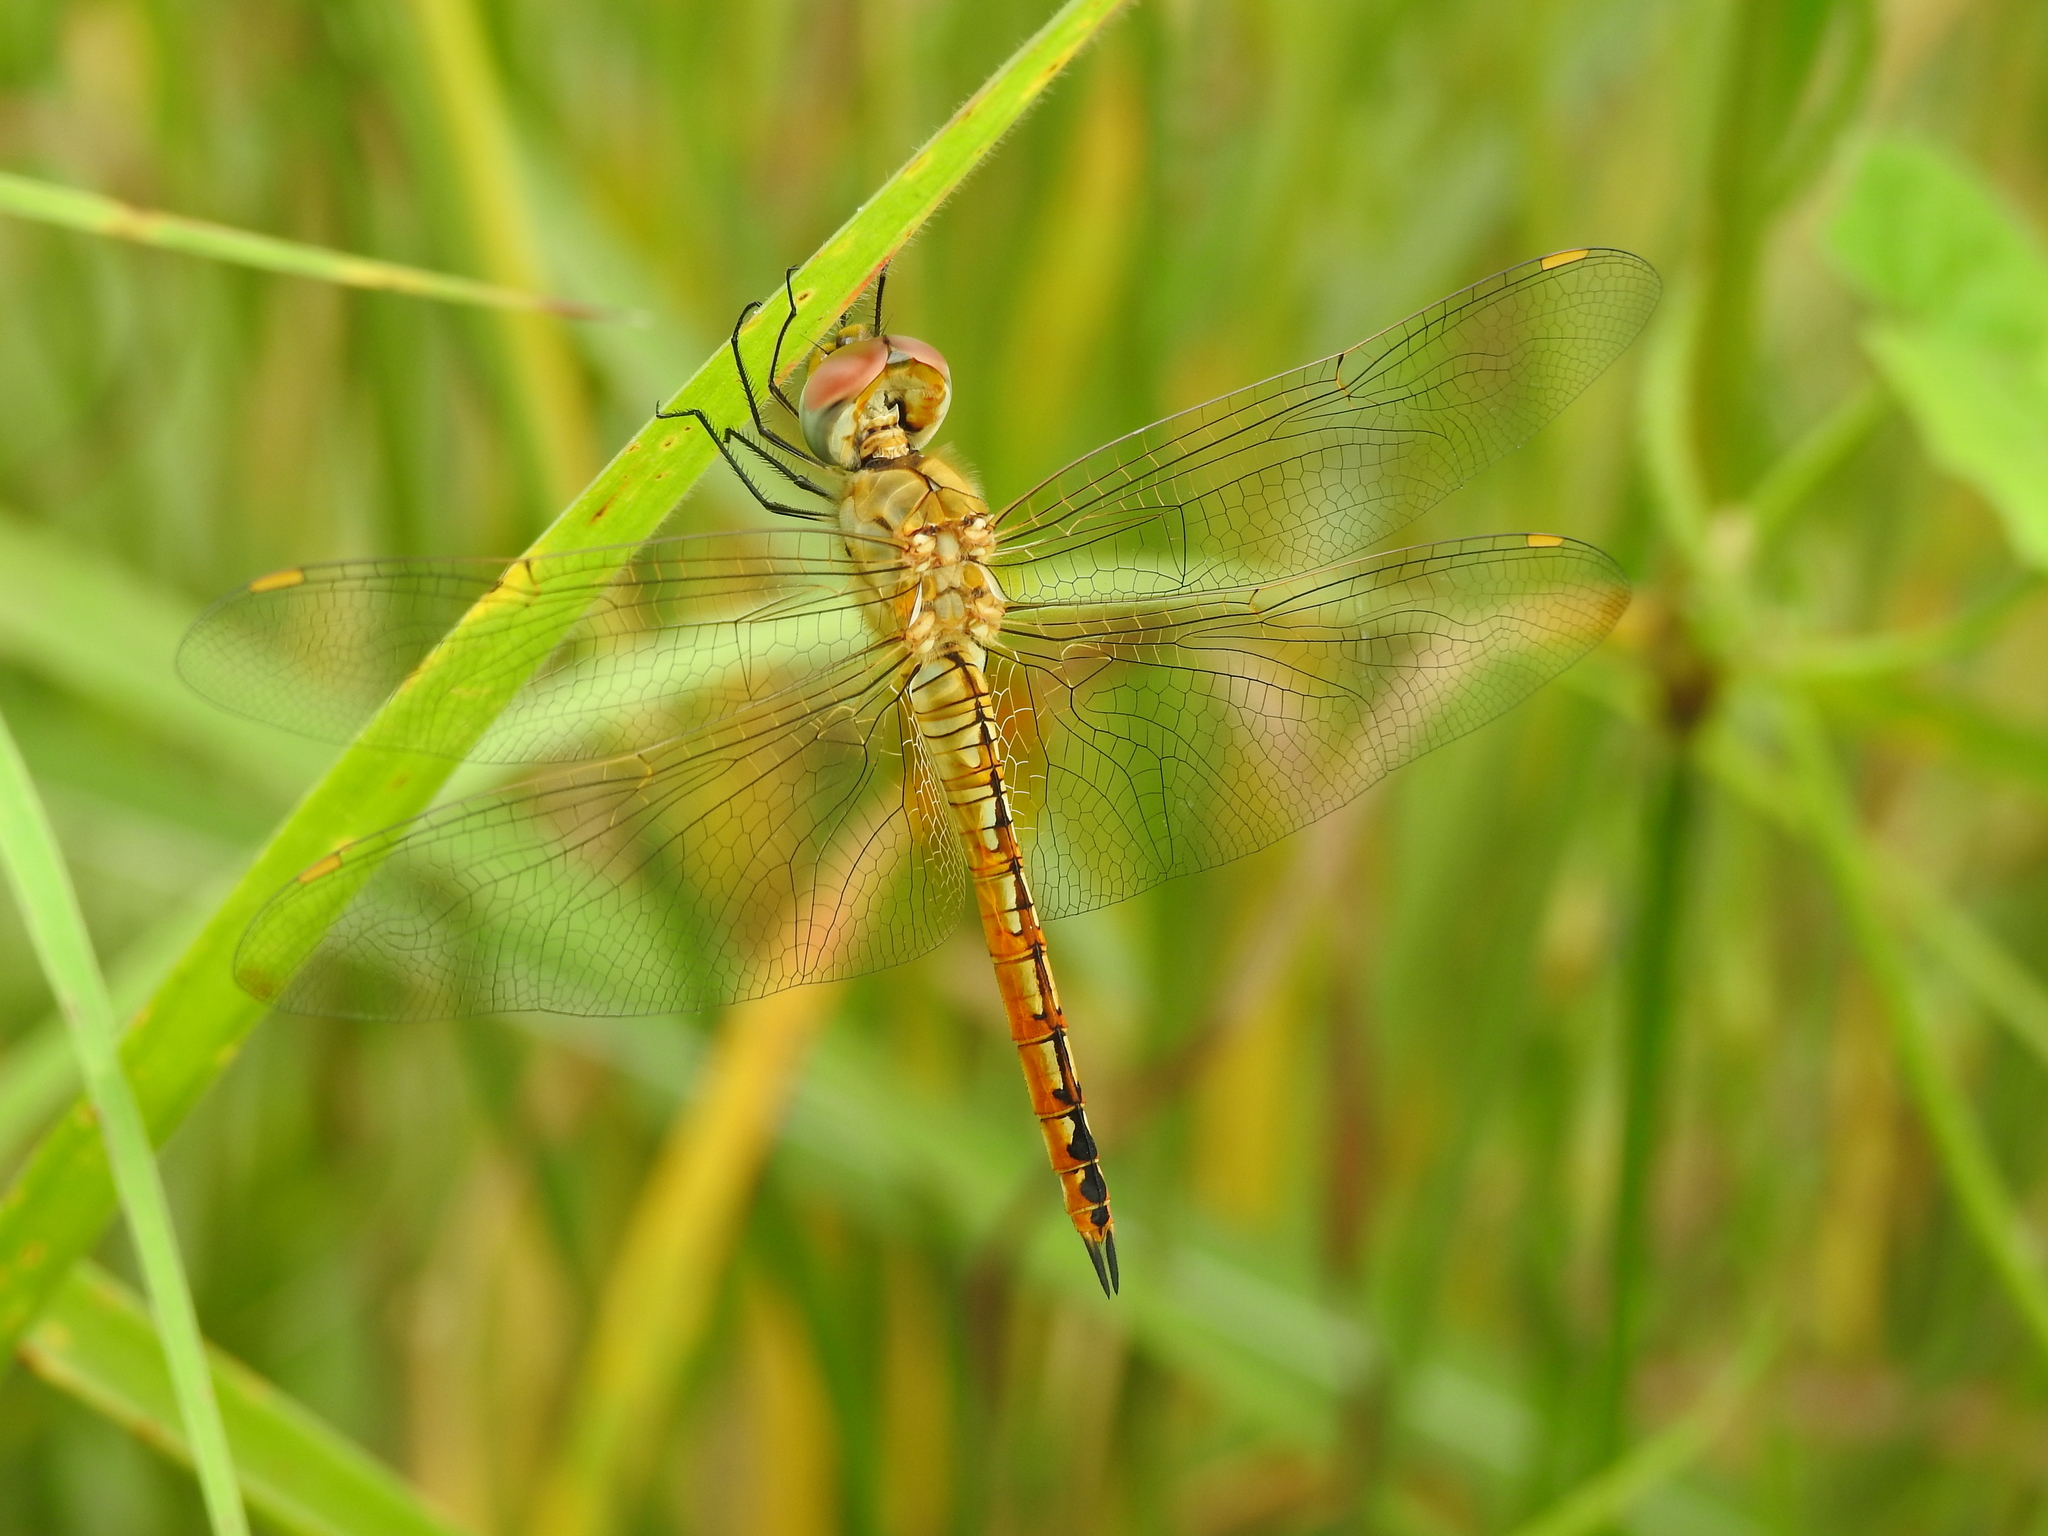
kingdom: Animalia
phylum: Arthropoda
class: Insecta
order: Odonata
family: Libellulidae
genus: Pantala
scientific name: Pantala flavescens
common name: Wandering glider
